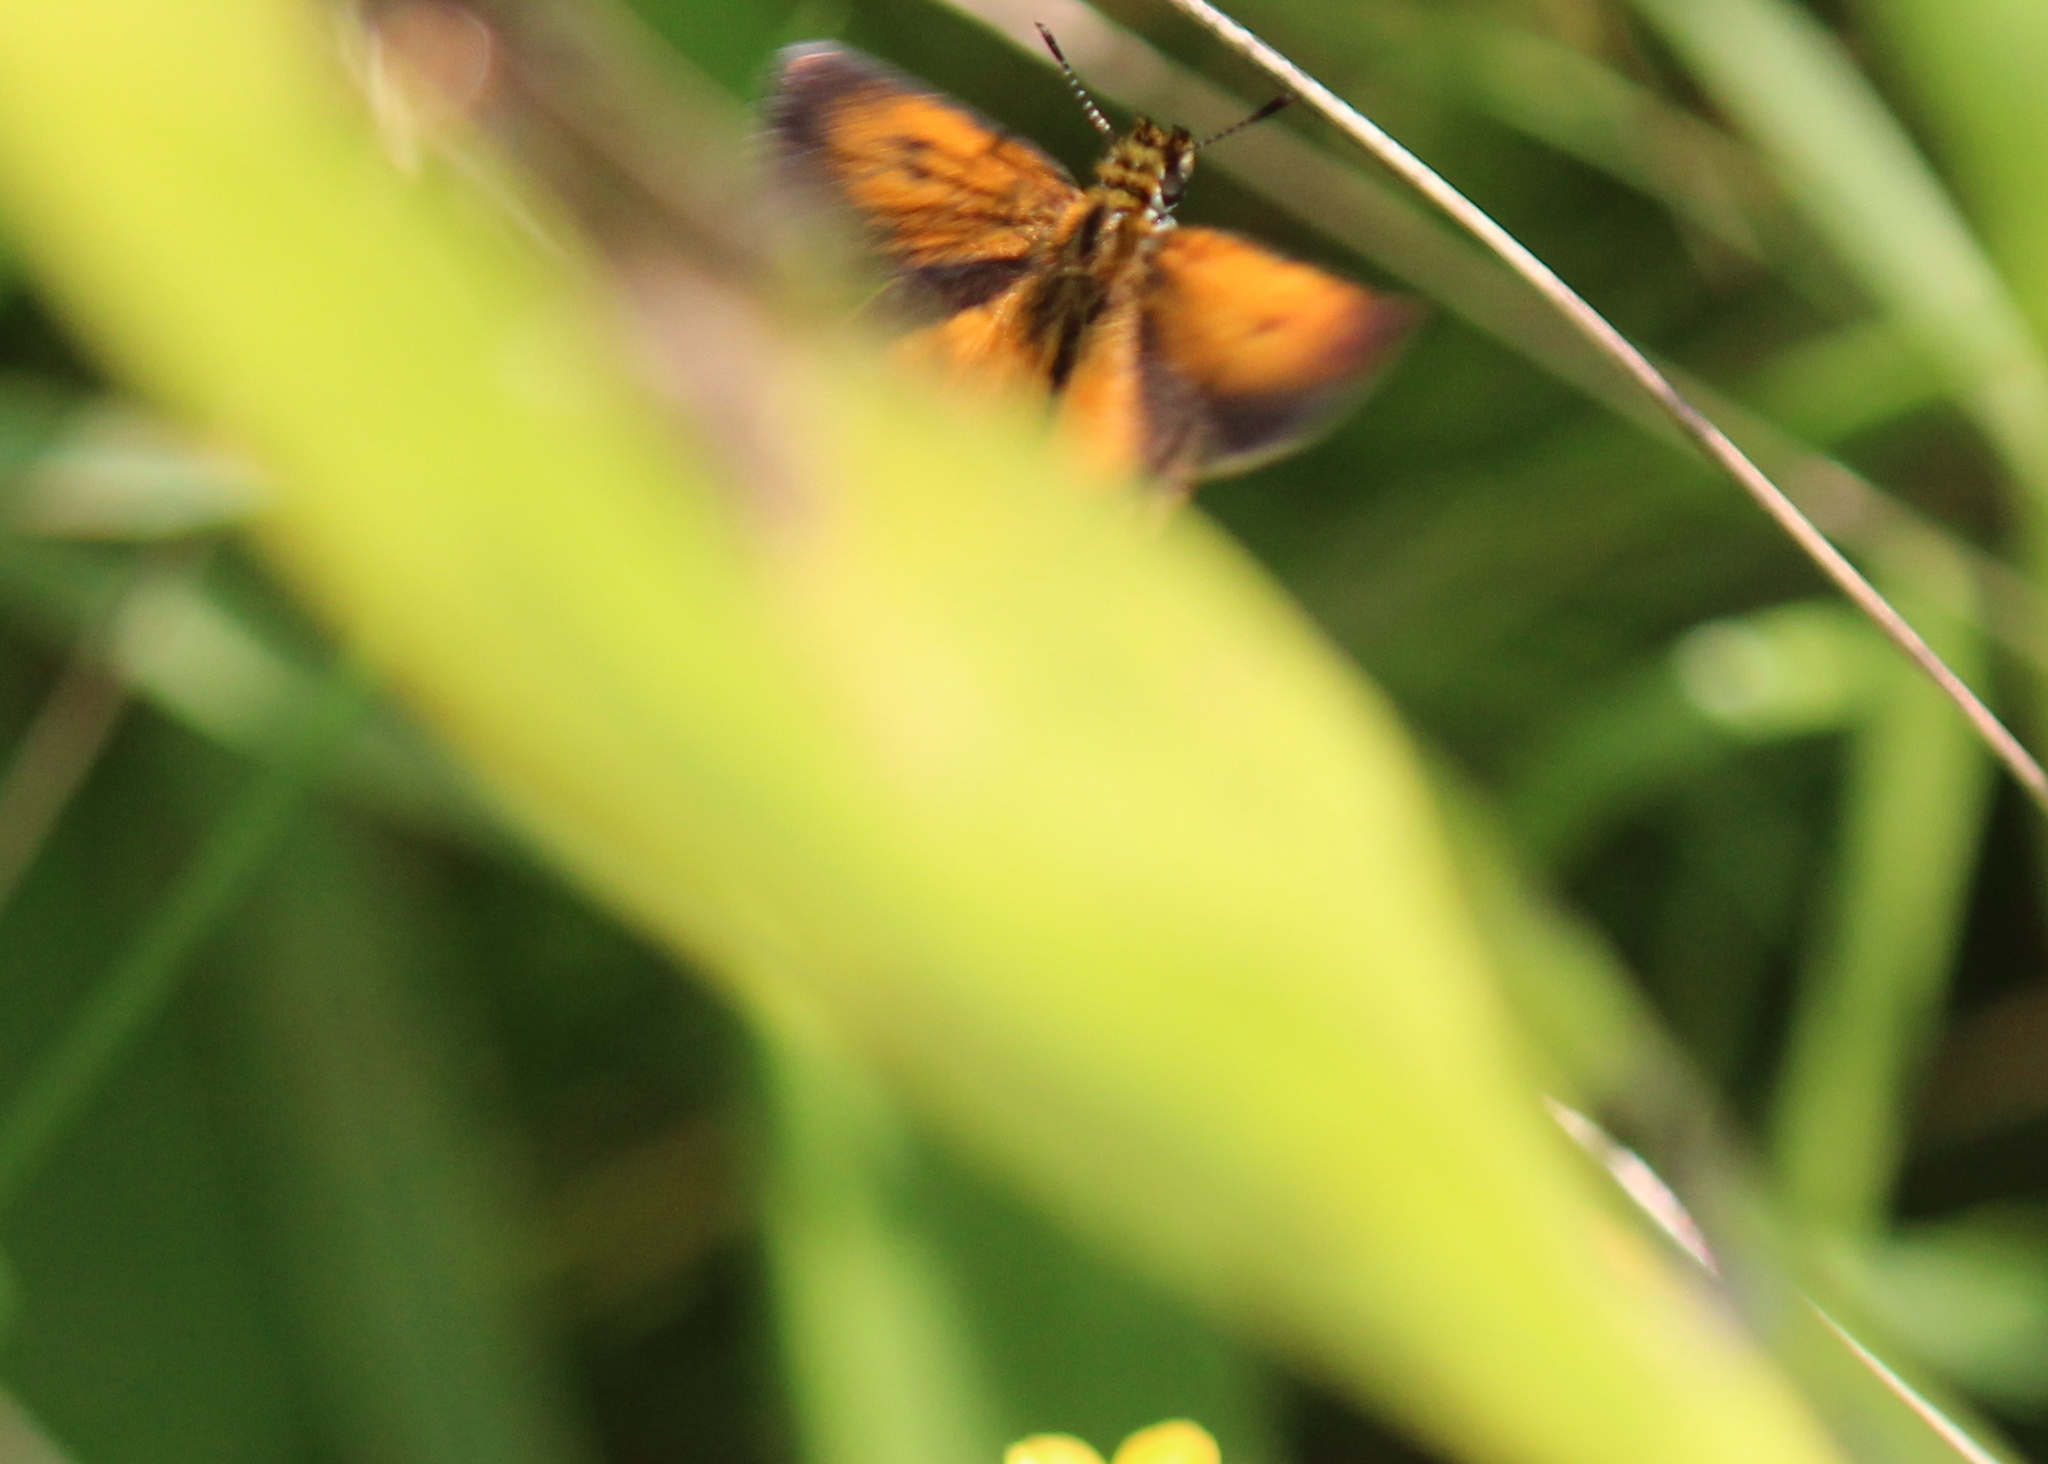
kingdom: Animalia
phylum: Arthropoda
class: Insecta
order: Lepidoptera
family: Hesperiidae
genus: Ancyloxypha
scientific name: Ancyloxypha numitor
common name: Least skipper
